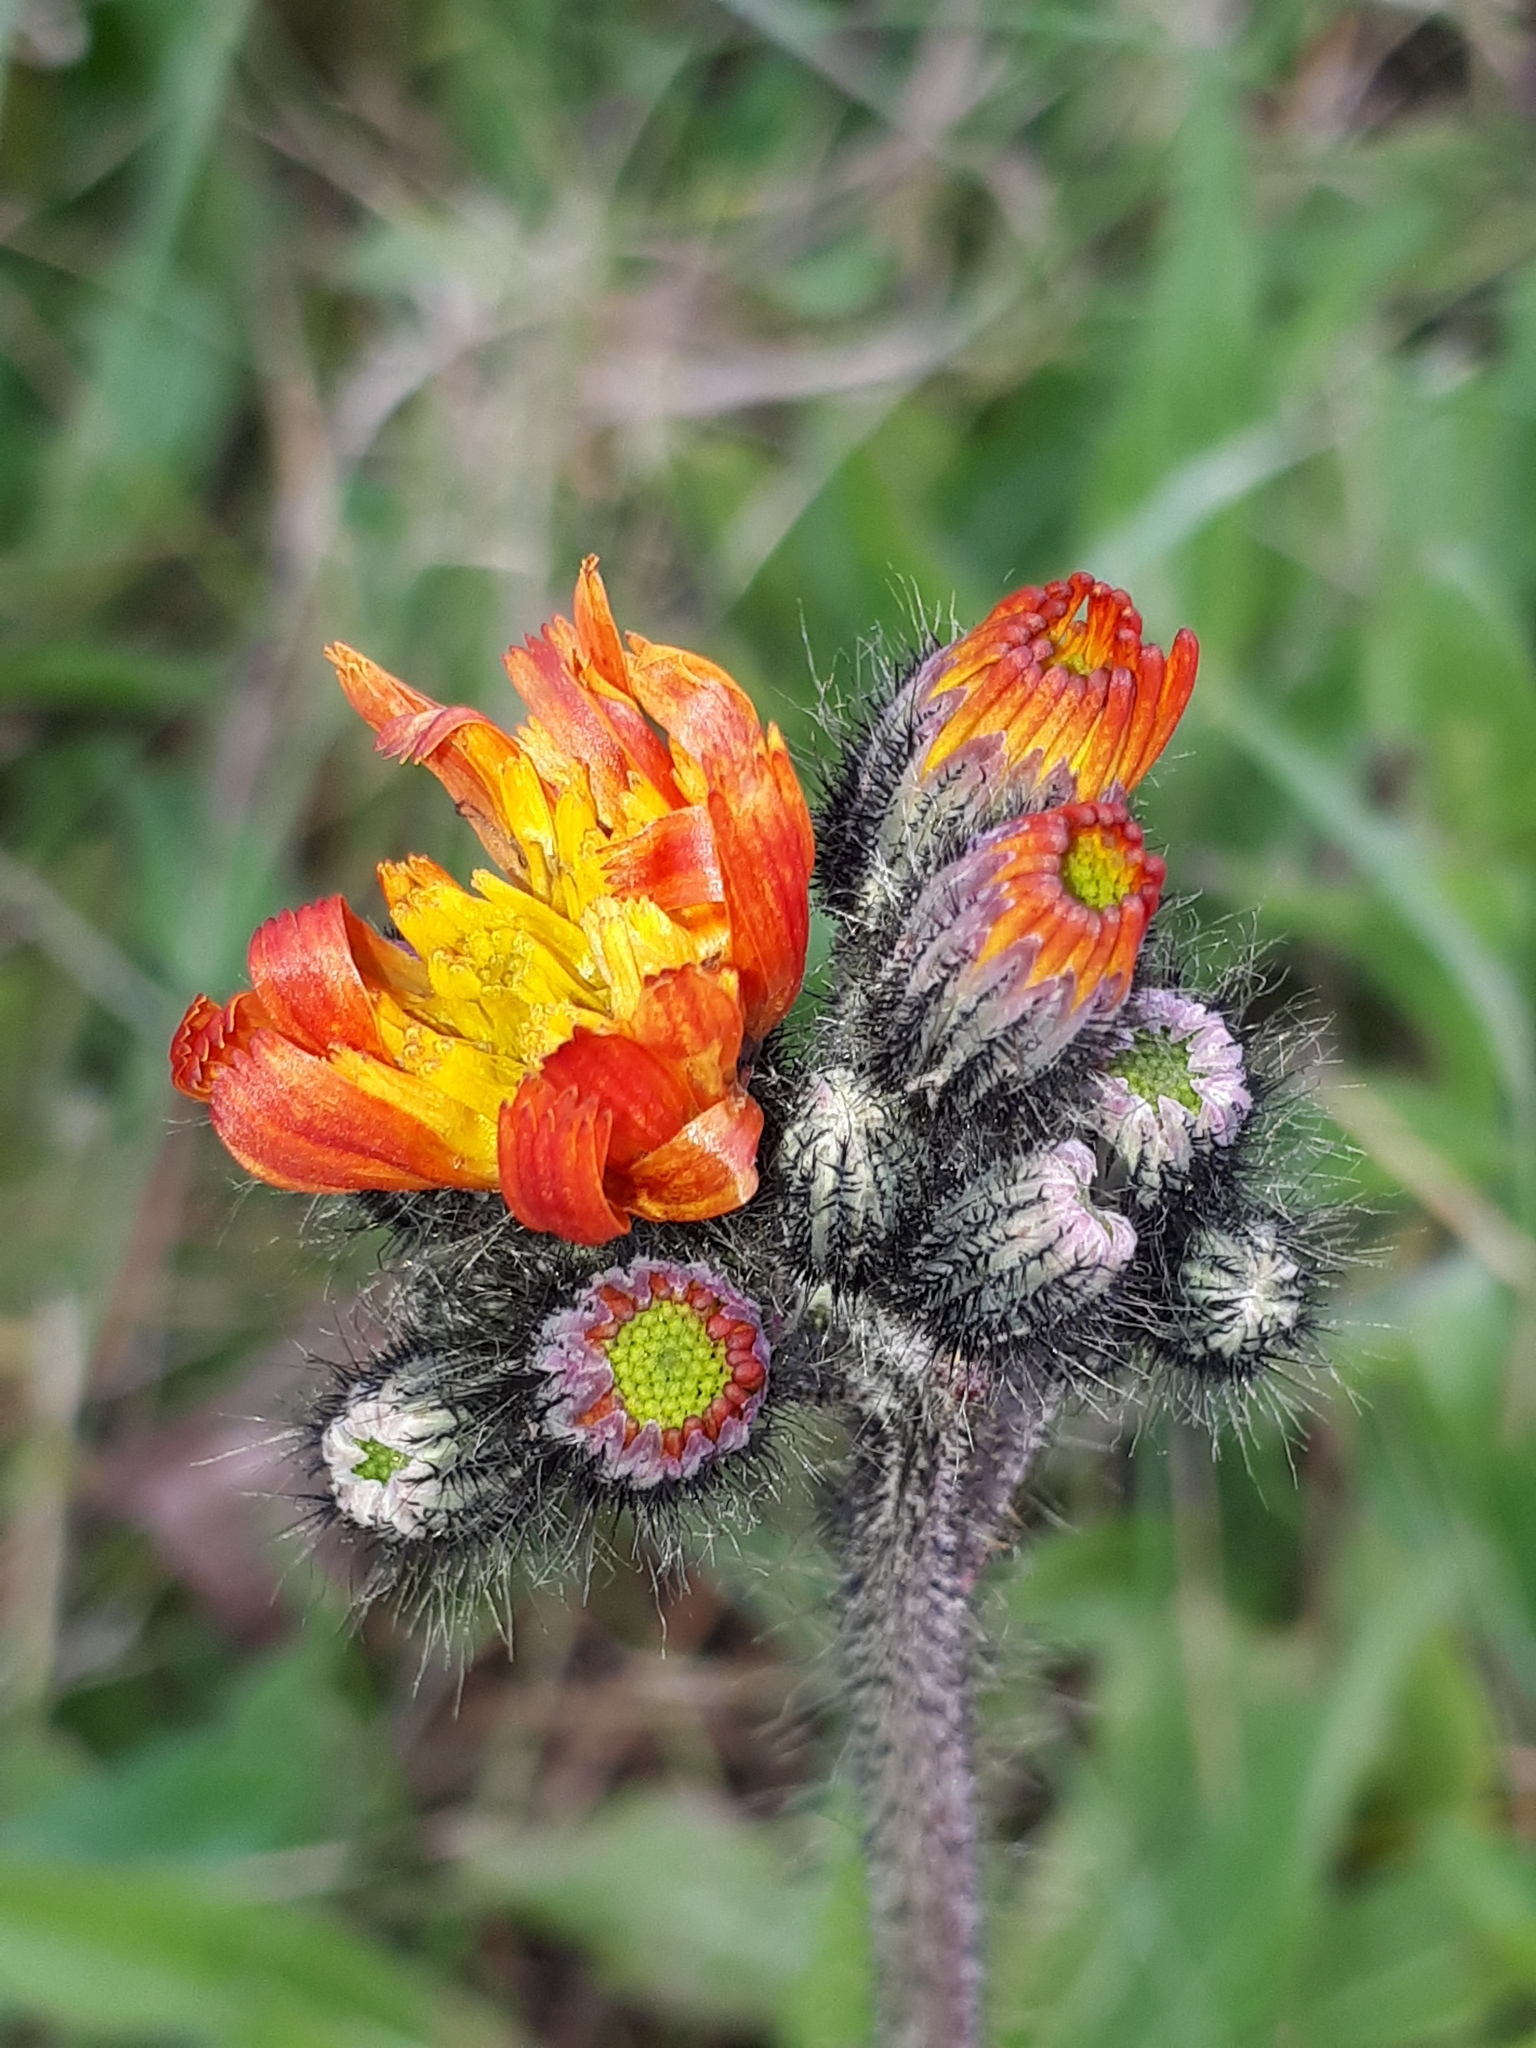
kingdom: Plantae
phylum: Tracheophyta
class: Magnoliopsida
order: Asterales
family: Asteraceae
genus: Pilosella
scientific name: Pilosella aurantiaca
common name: Fox-and-cubs
